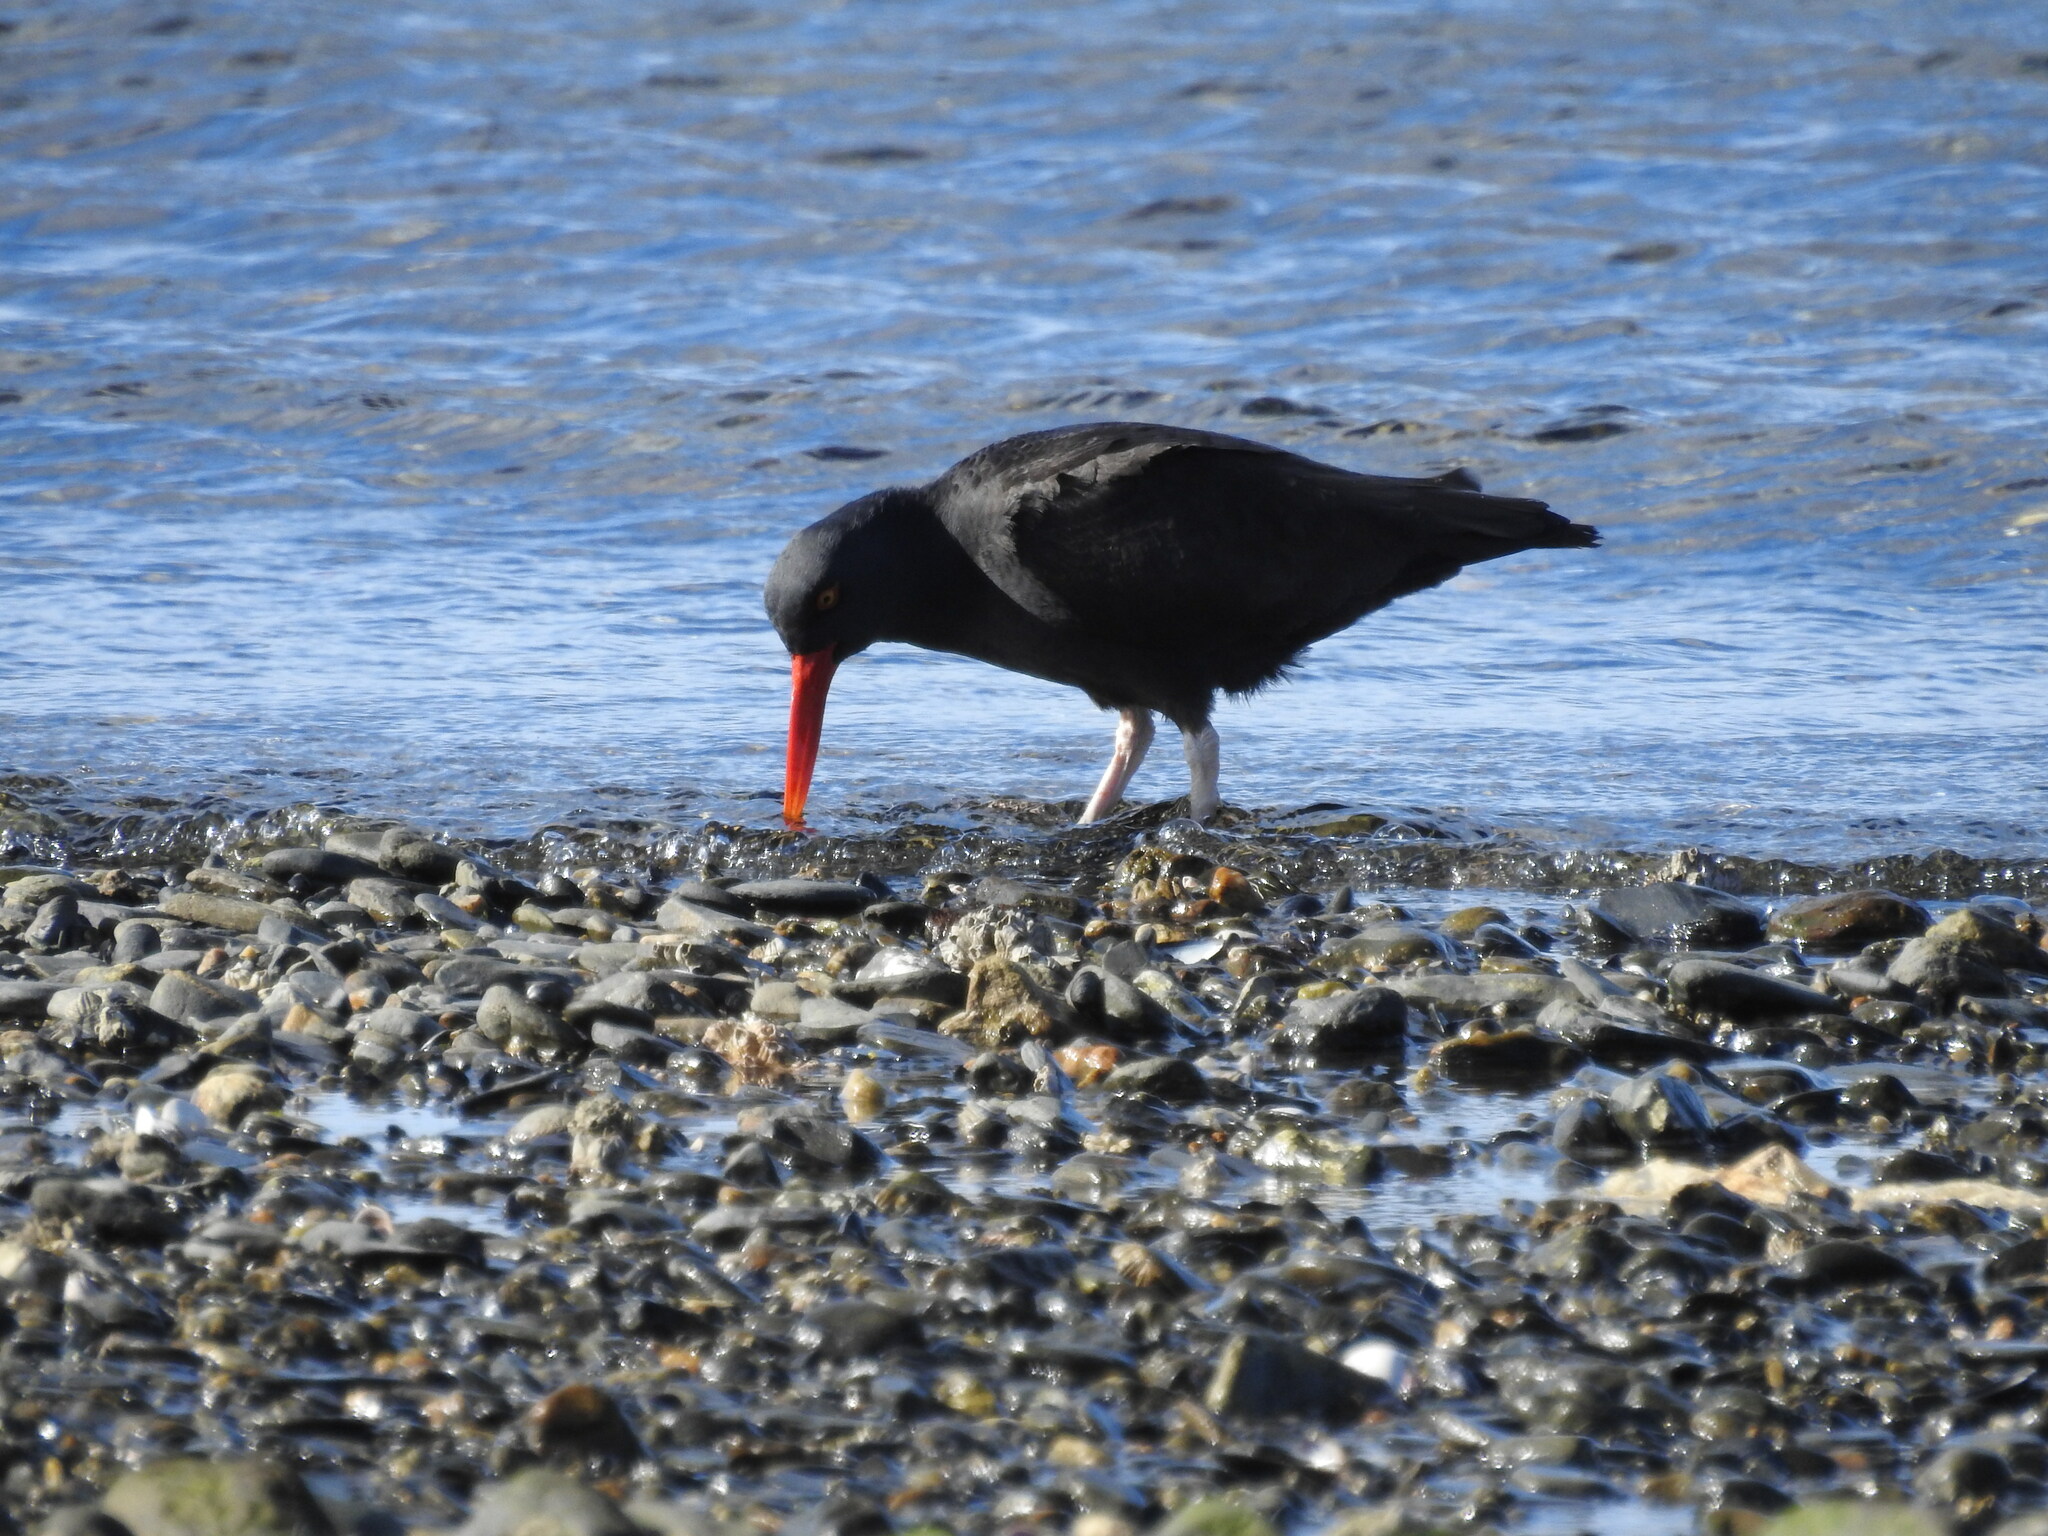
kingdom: Animalia
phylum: Chordata
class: Aves
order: Charadriiformes
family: Haematopodidae
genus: Haematopus
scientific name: Haematopus ater
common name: Blackish oystercatcher
